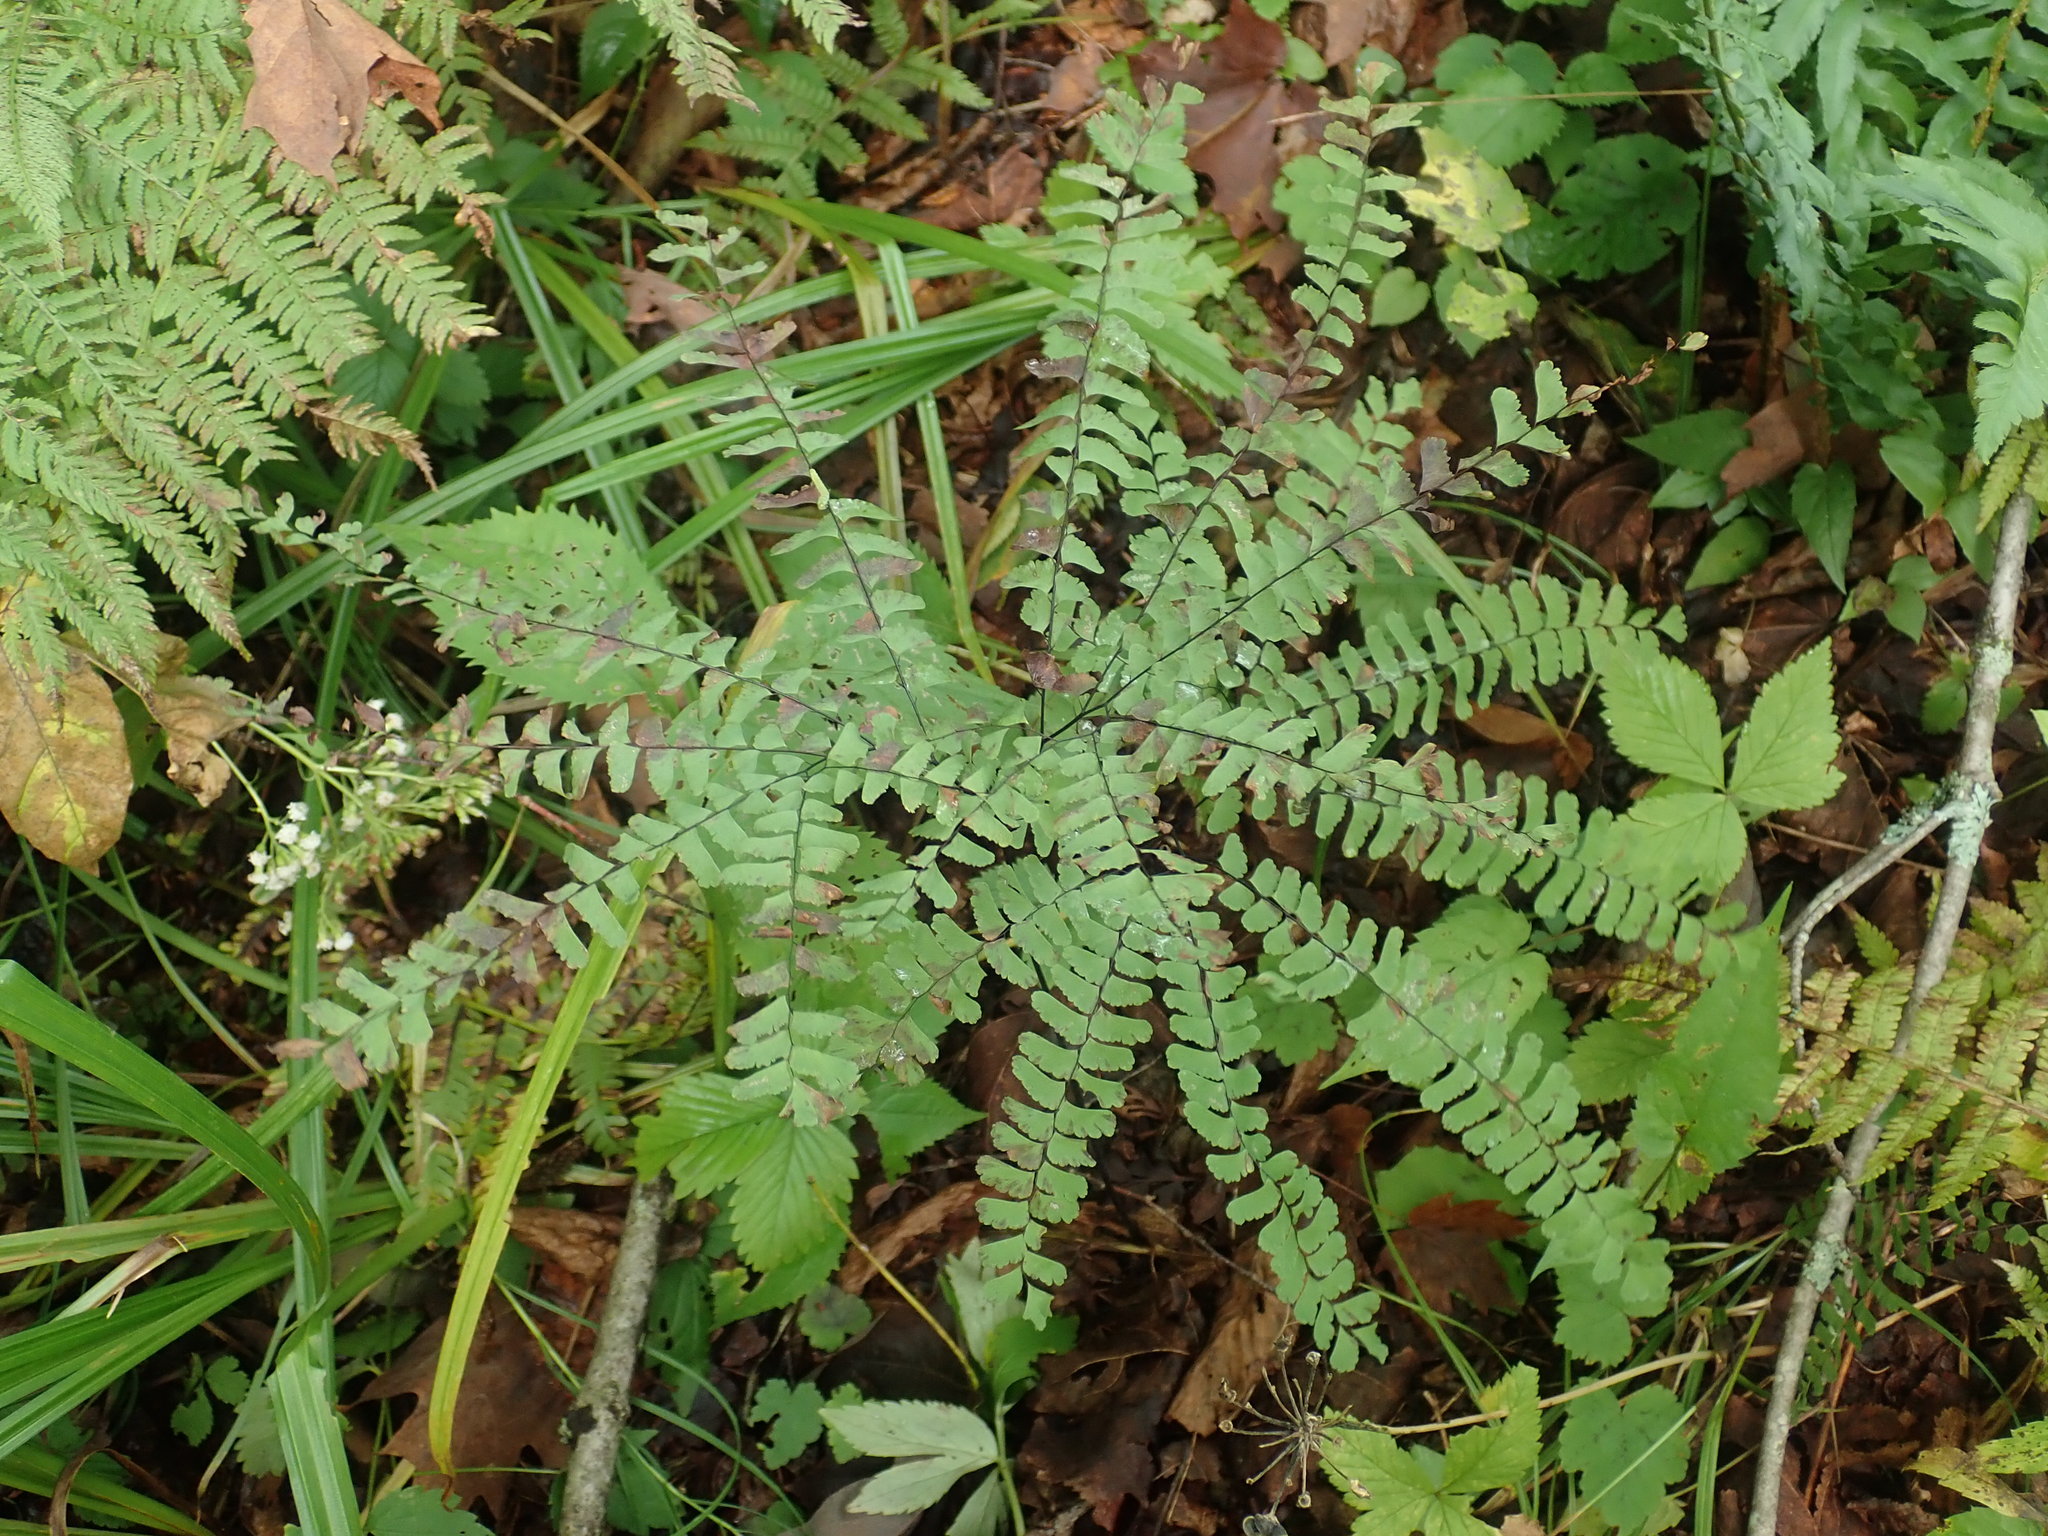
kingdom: Plantae
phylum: Tracheophyta
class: Polypodiopsida
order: Polypodiales
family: Pteridaceae
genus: Adiantum
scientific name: Adiantum pedatum
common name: Five-finger fern
